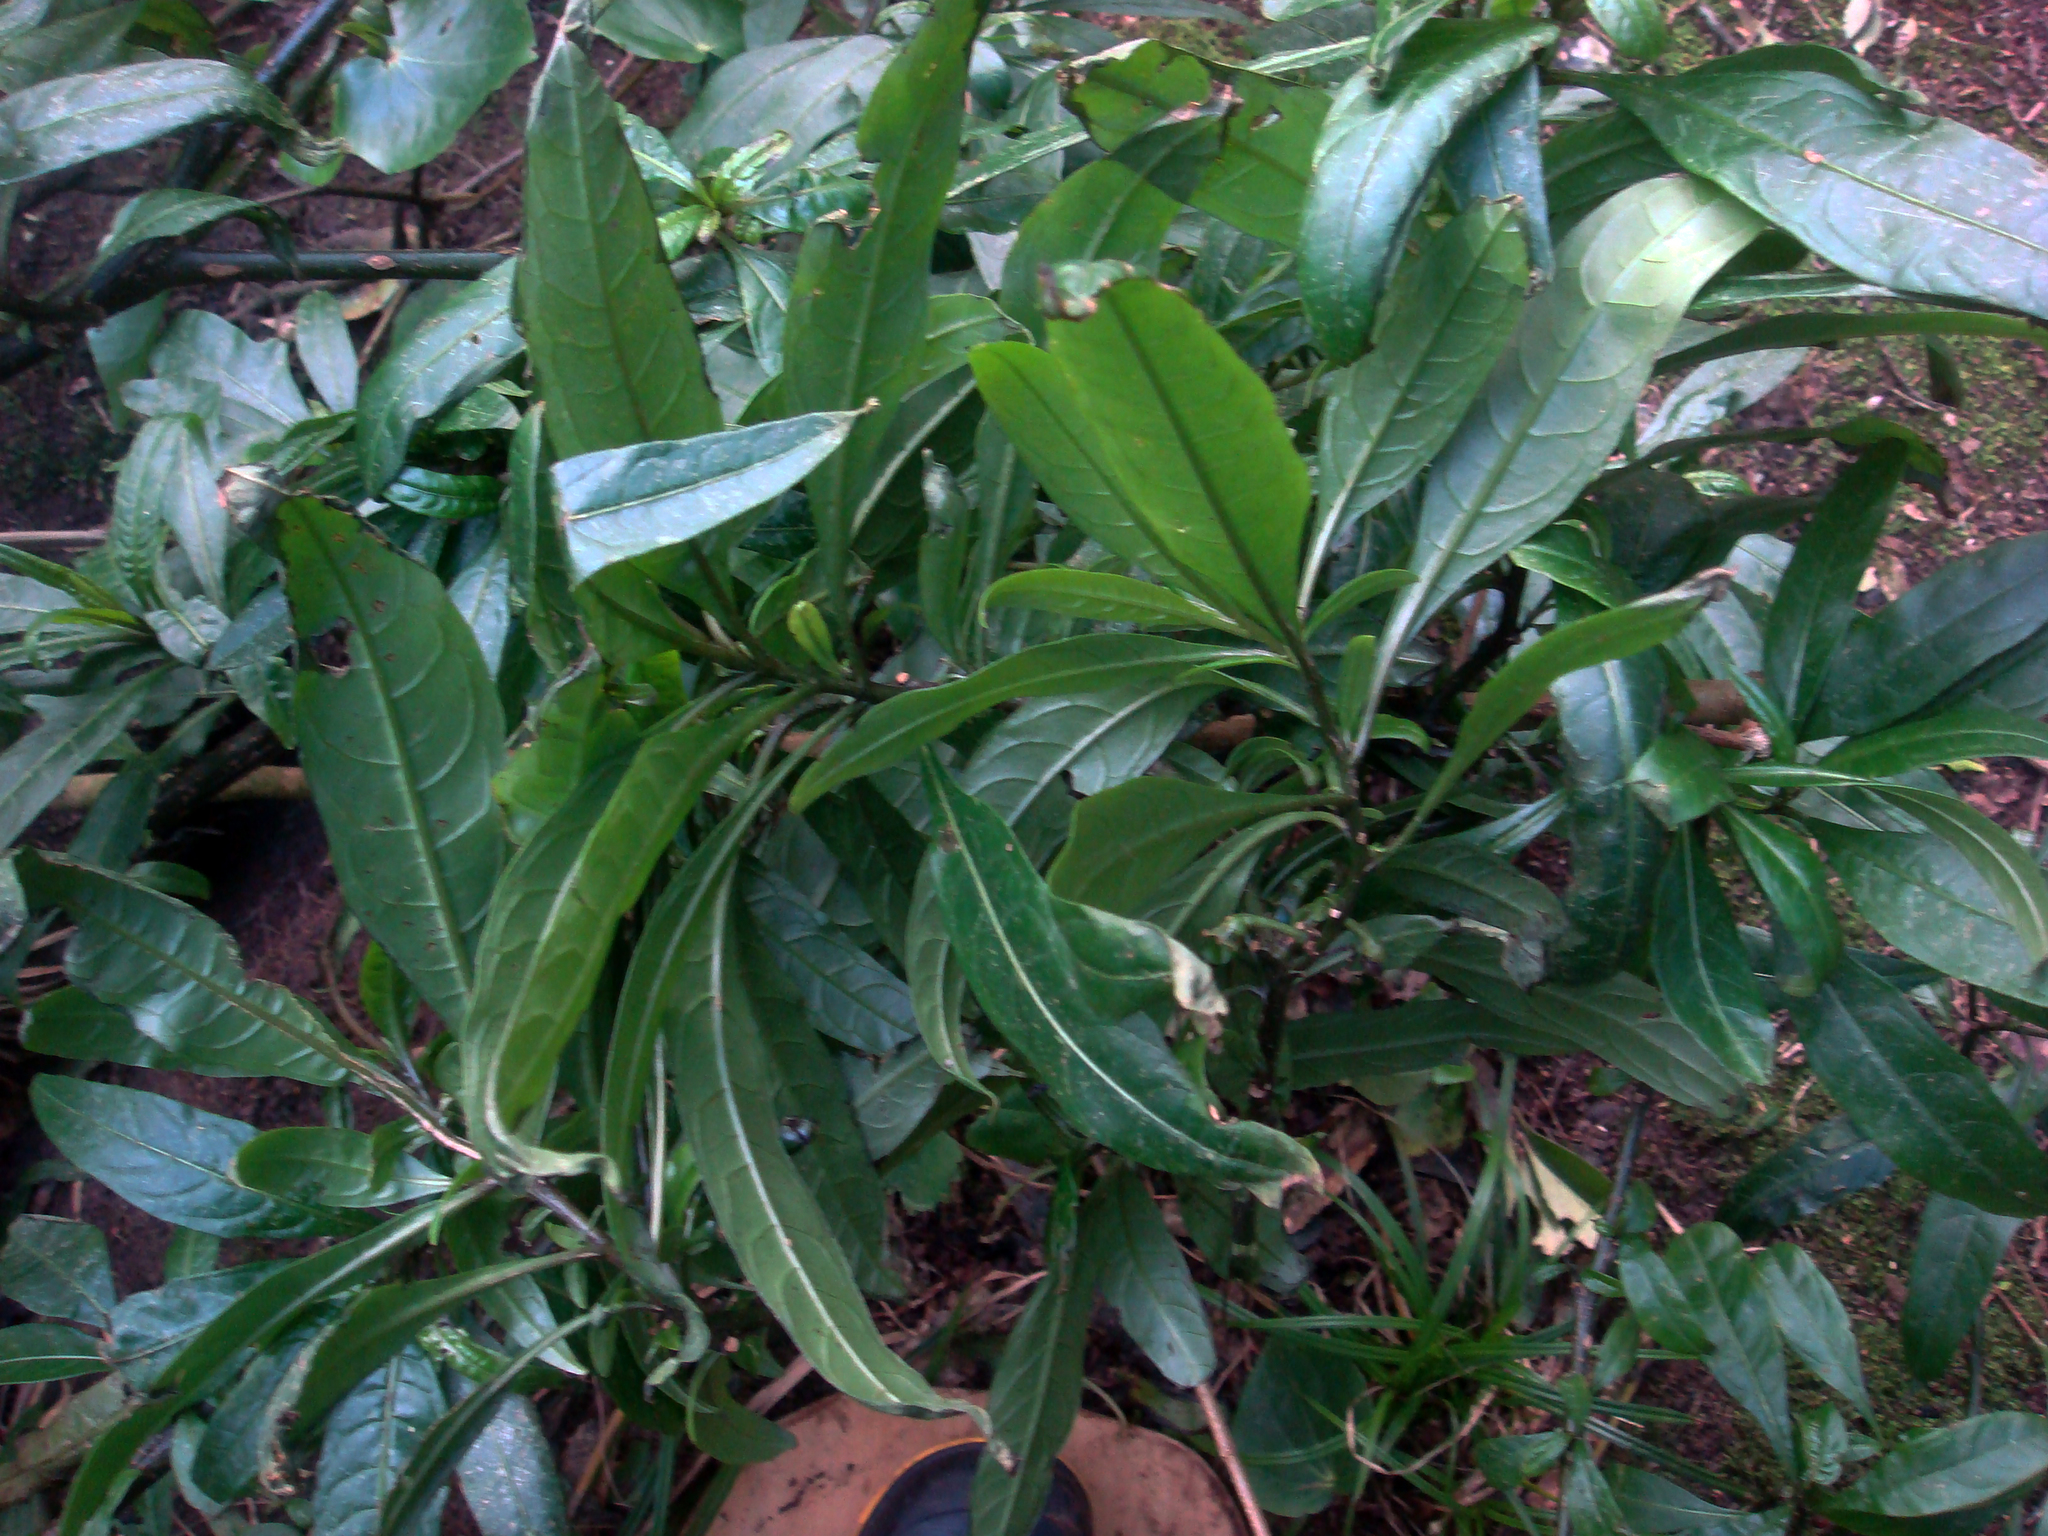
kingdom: Plantae
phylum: Tracheophyta
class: Magnoliopsida
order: Solanales
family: Solanaceae
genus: Solanum
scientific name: Solanum aviculare
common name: New zealand nightshade
